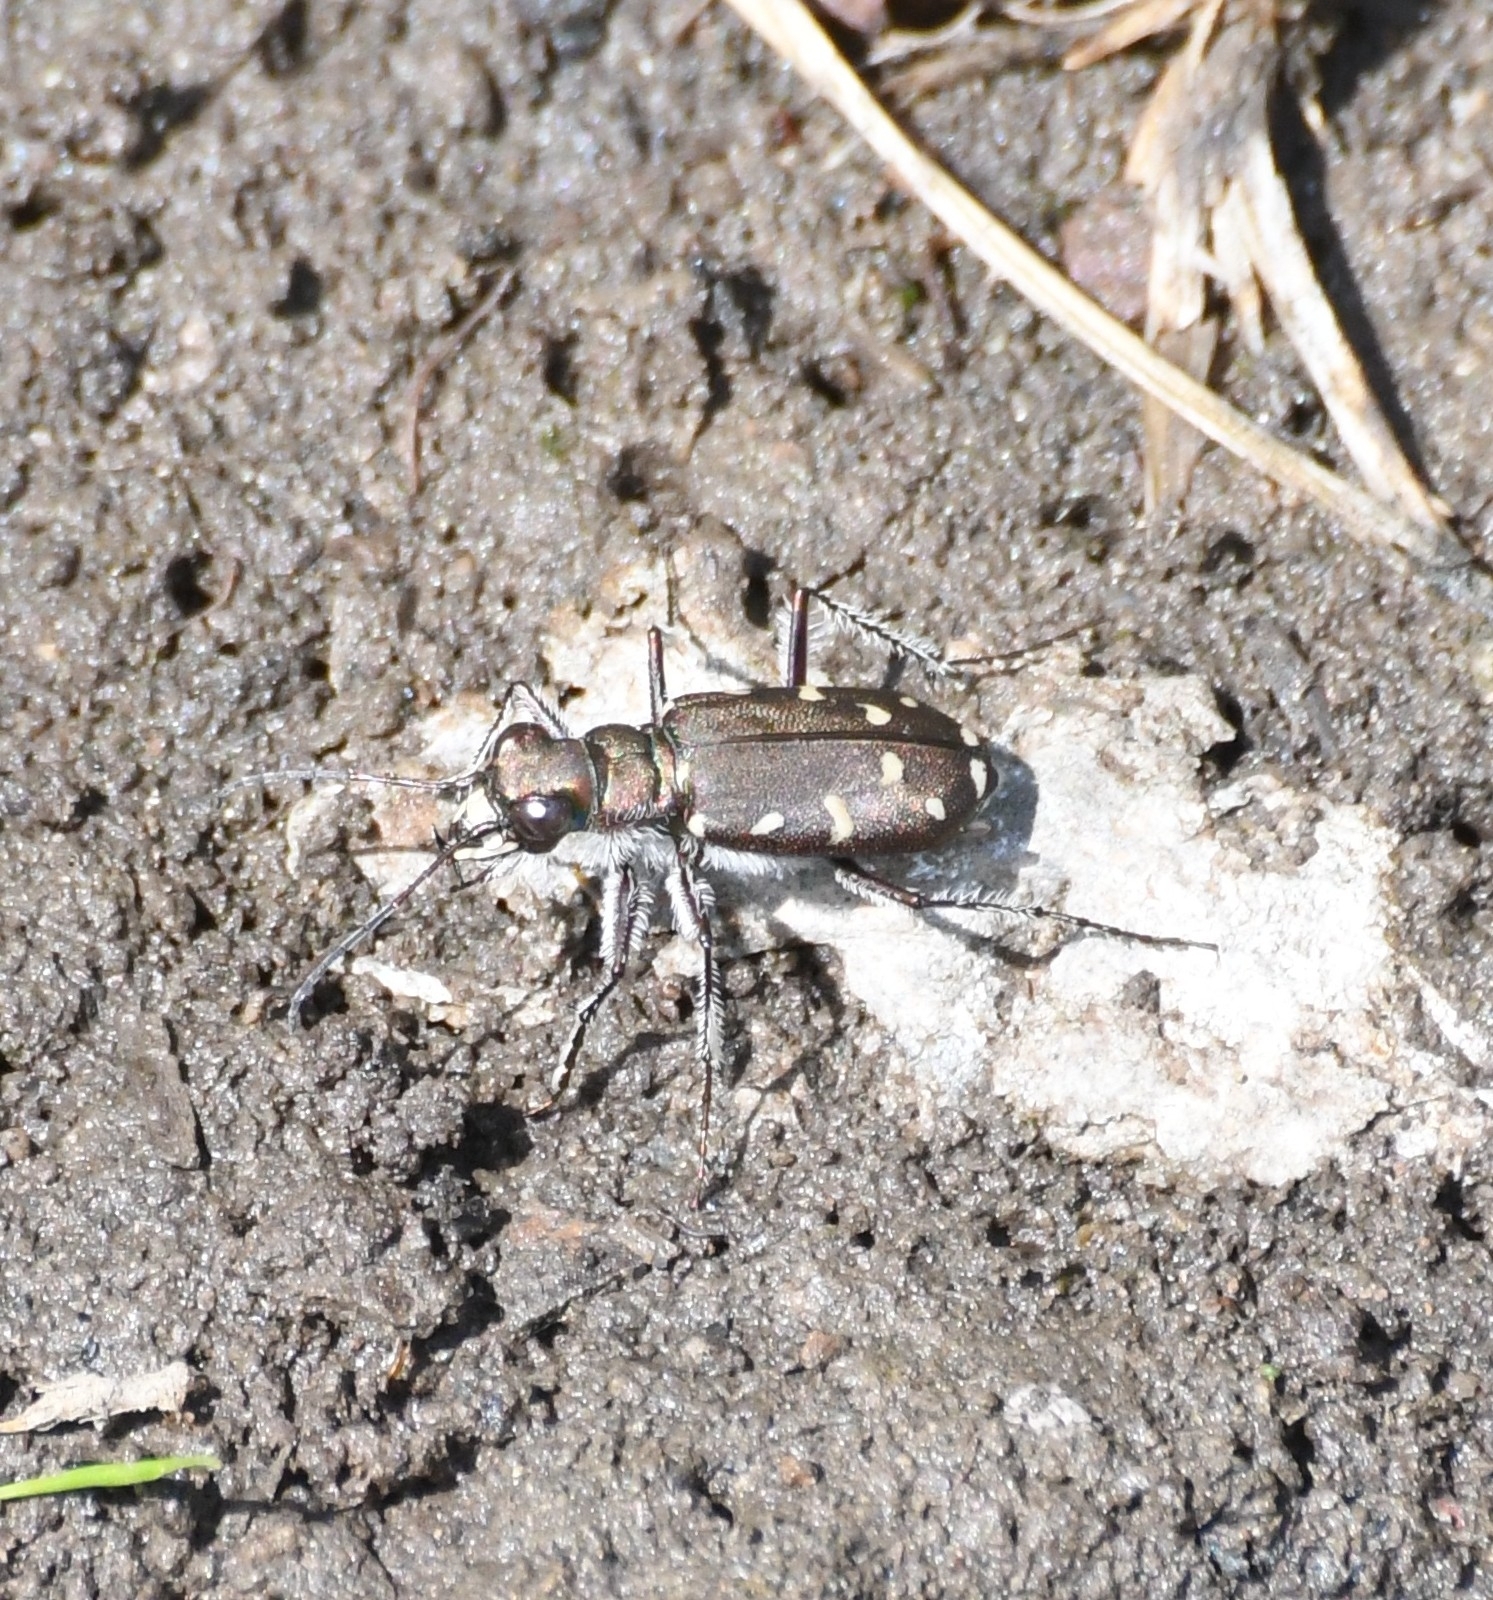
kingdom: Animalia
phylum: Arthropoda
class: Insecta
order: Coleoptera
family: Carabidae
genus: Cicindela
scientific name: Cicindela oregona
